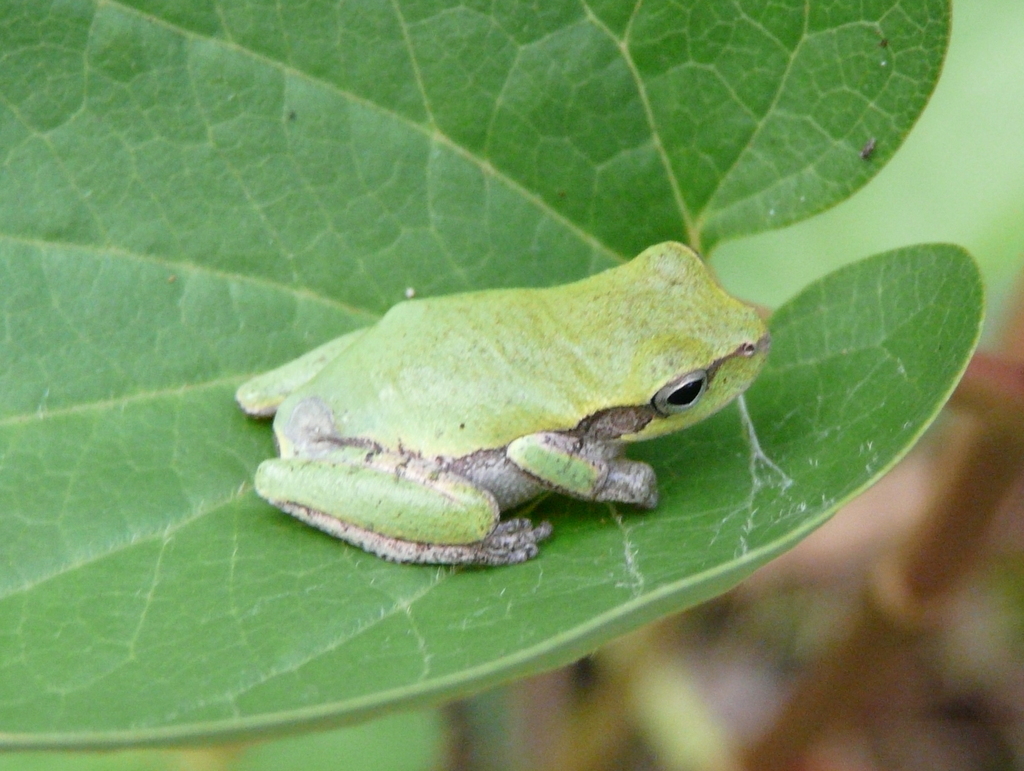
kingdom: Animalia
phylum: Chordata
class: Amphibia
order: Anura
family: Hylidae
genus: Hyla
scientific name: Hyla femoralis
